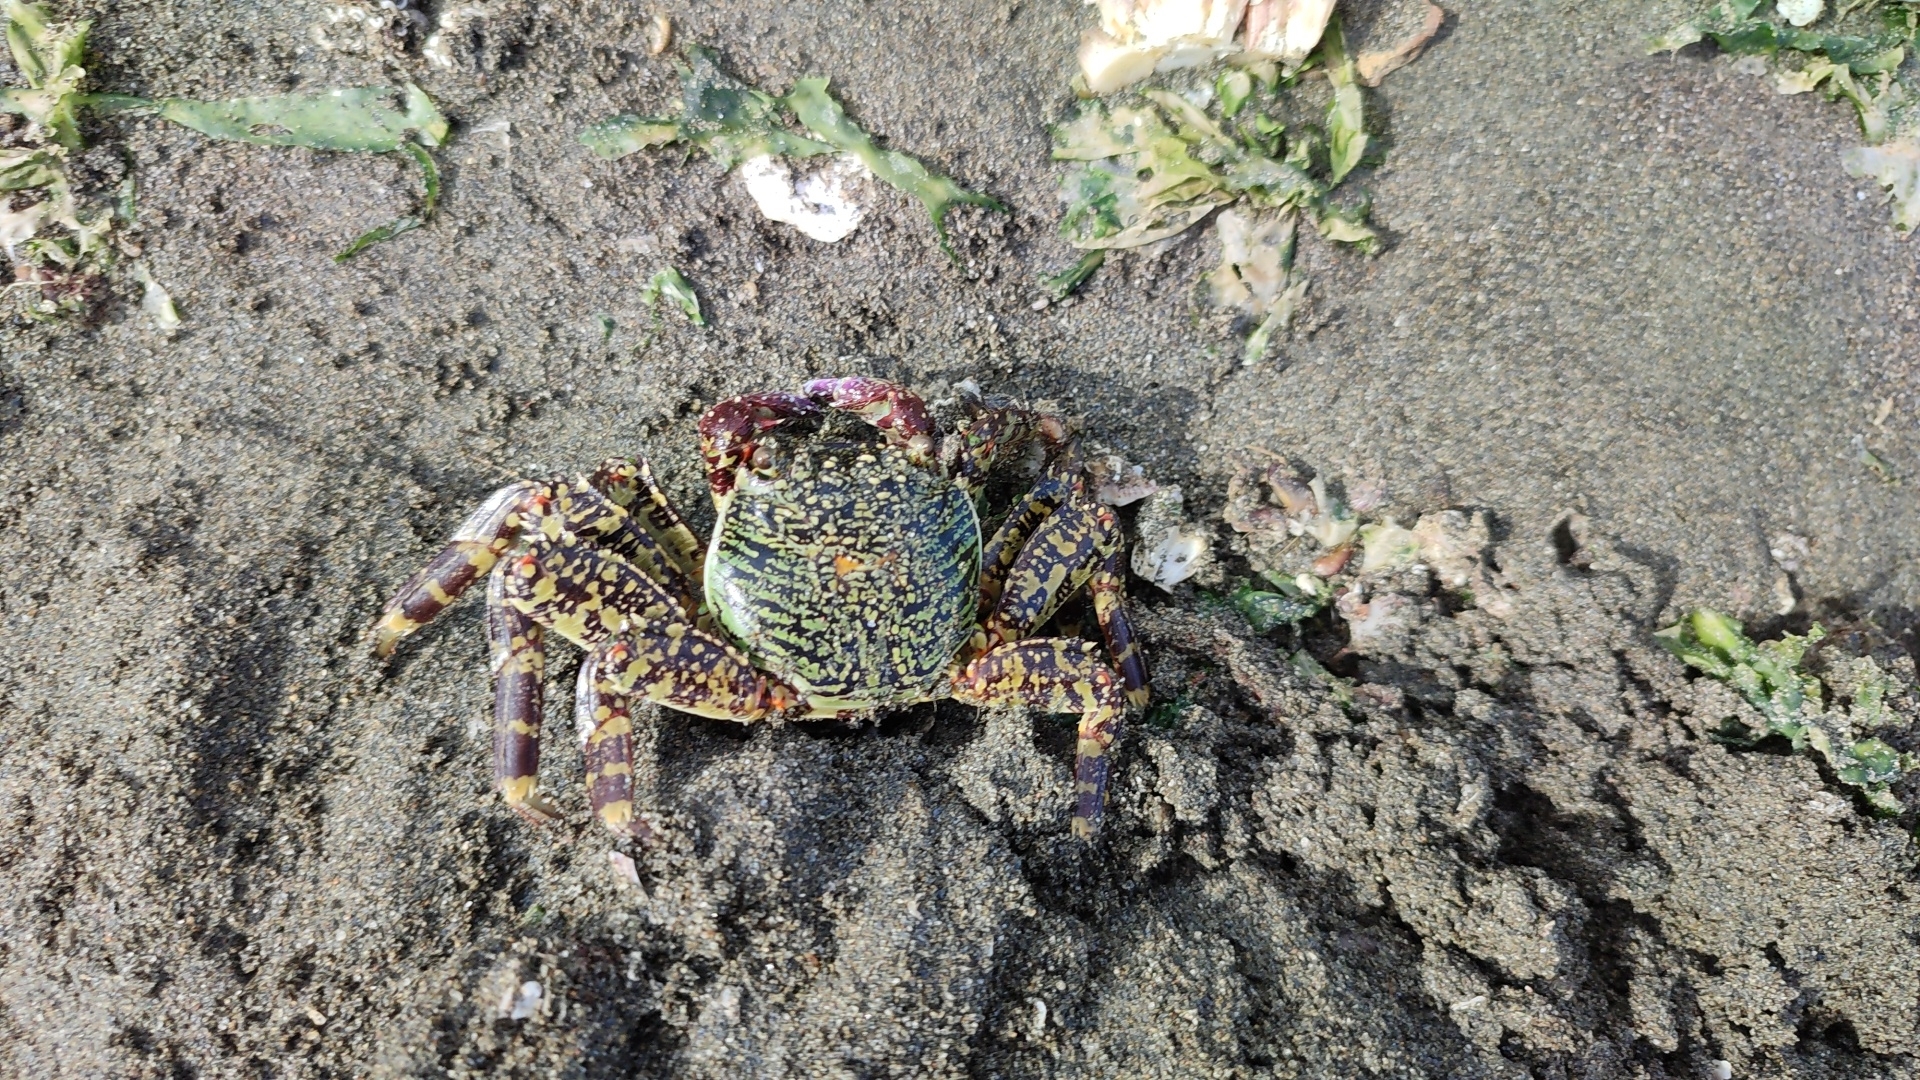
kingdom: Animalia
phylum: Arthropoda
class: Malacostraca
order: Decapoda
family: Grapsidae
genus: Grapsus
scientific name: Grapsus albolineatus
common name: Mottled lightfoot crab
